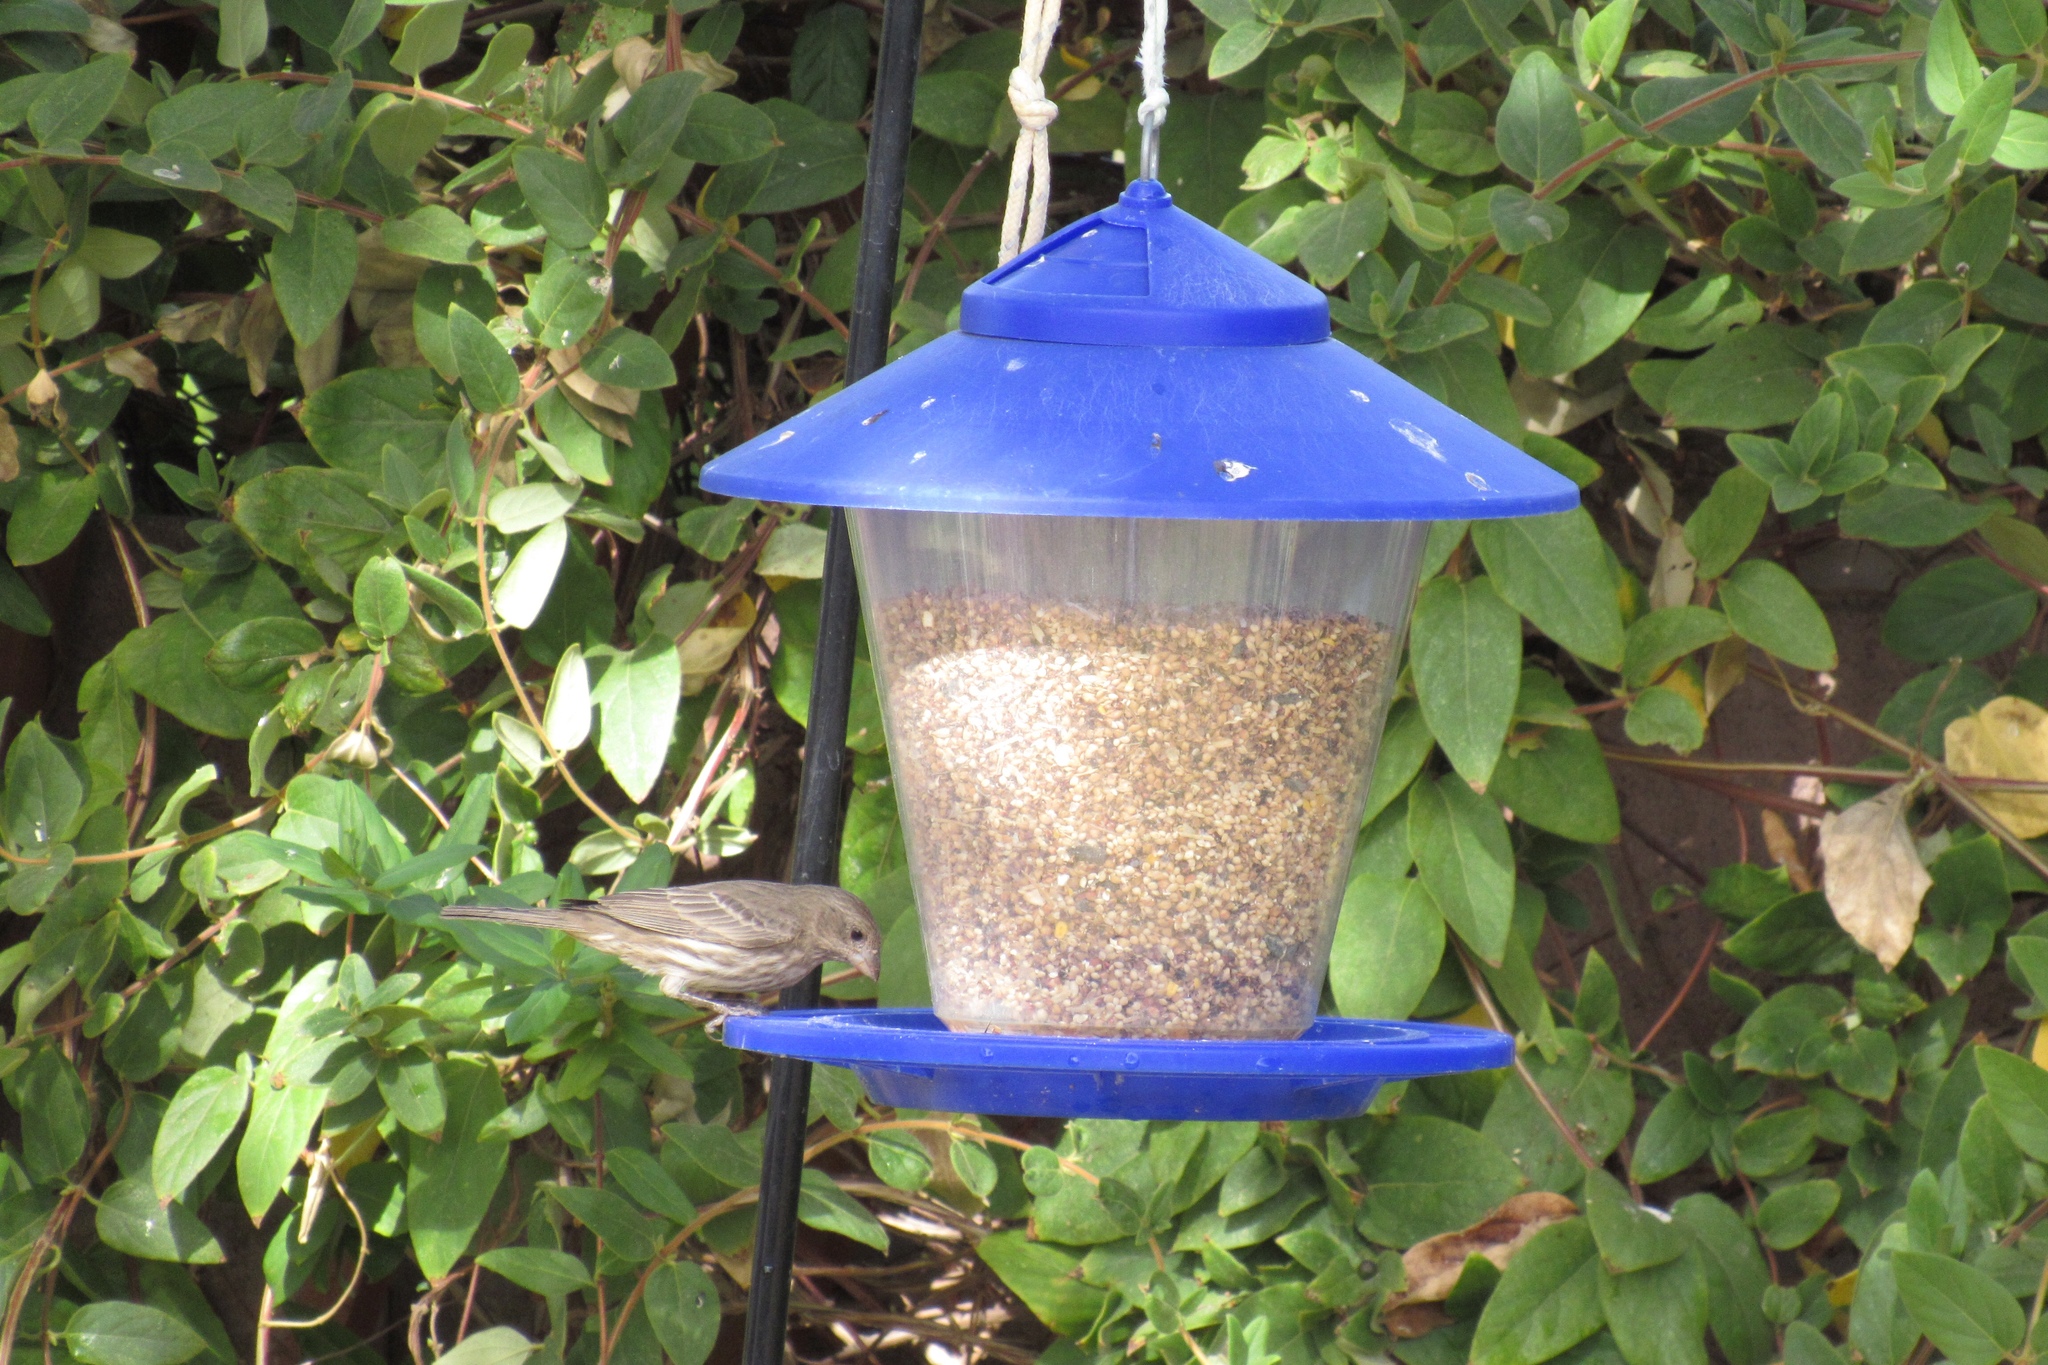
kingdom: Animalia
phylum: Chordata
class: Aves
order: Passeriformes
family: Fringillidae
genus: Haemorhous
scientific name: Haemorhous mexicanus
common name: House finch
